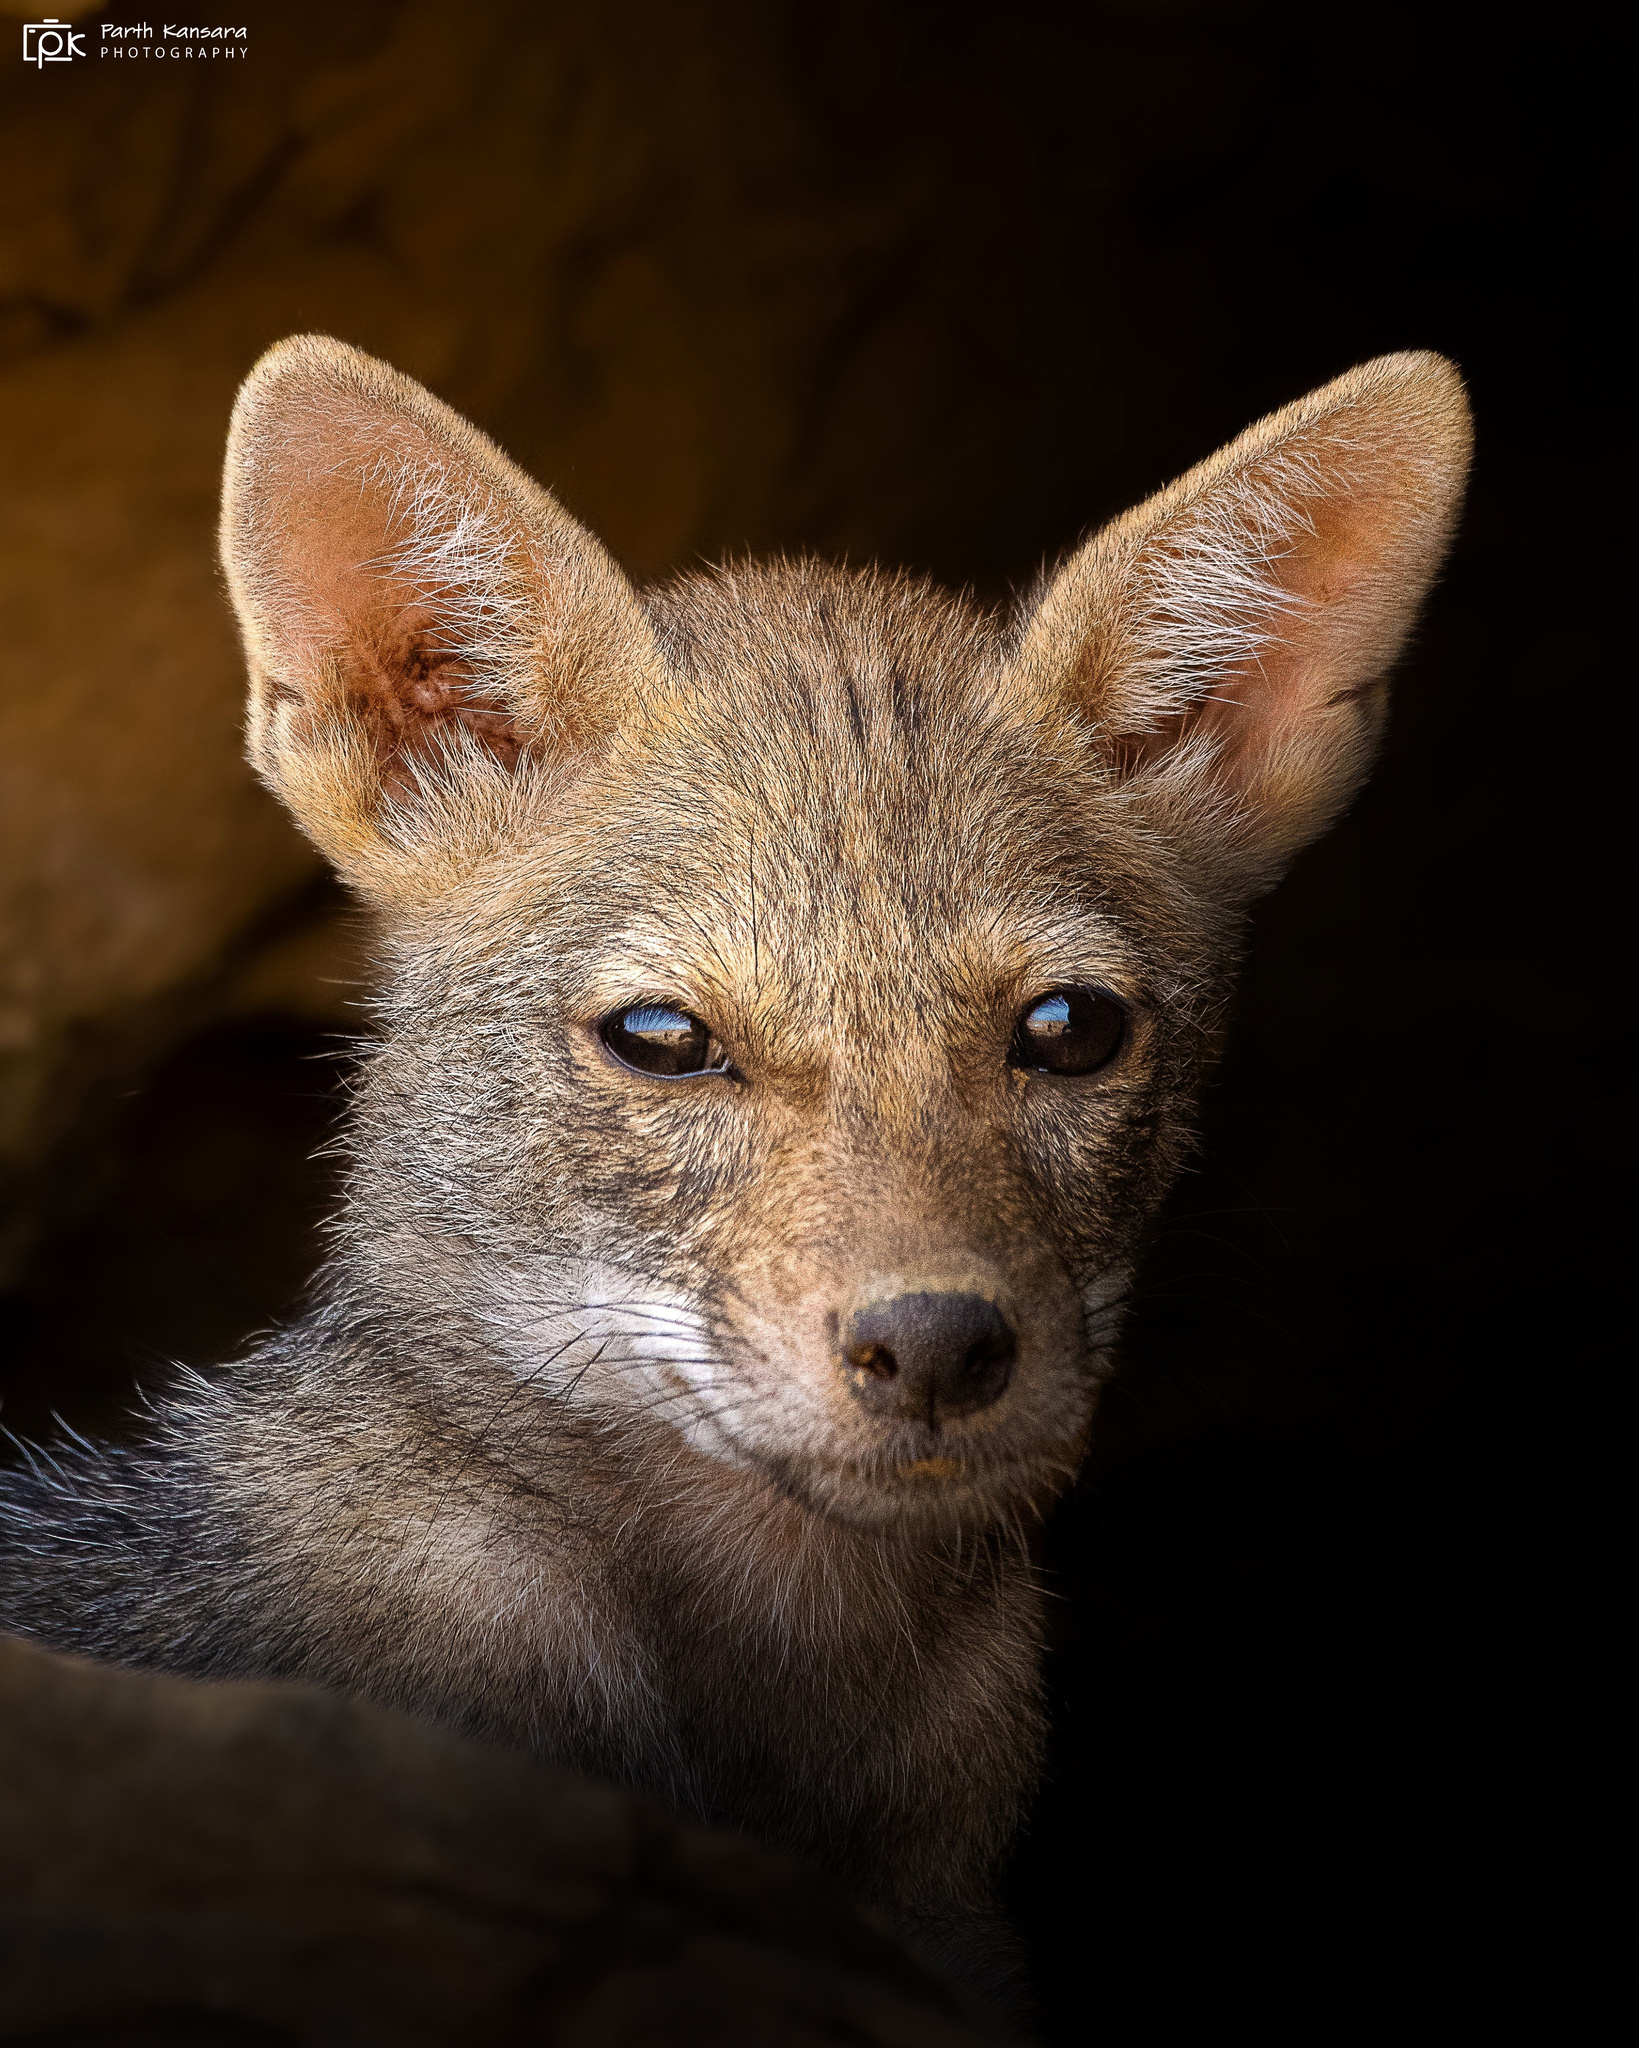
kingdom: Animalia
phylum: Chordata
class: Mammalia
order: Carnivora
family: Canidae
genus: Canis
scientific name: Canis aureus
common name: Golden jackal
